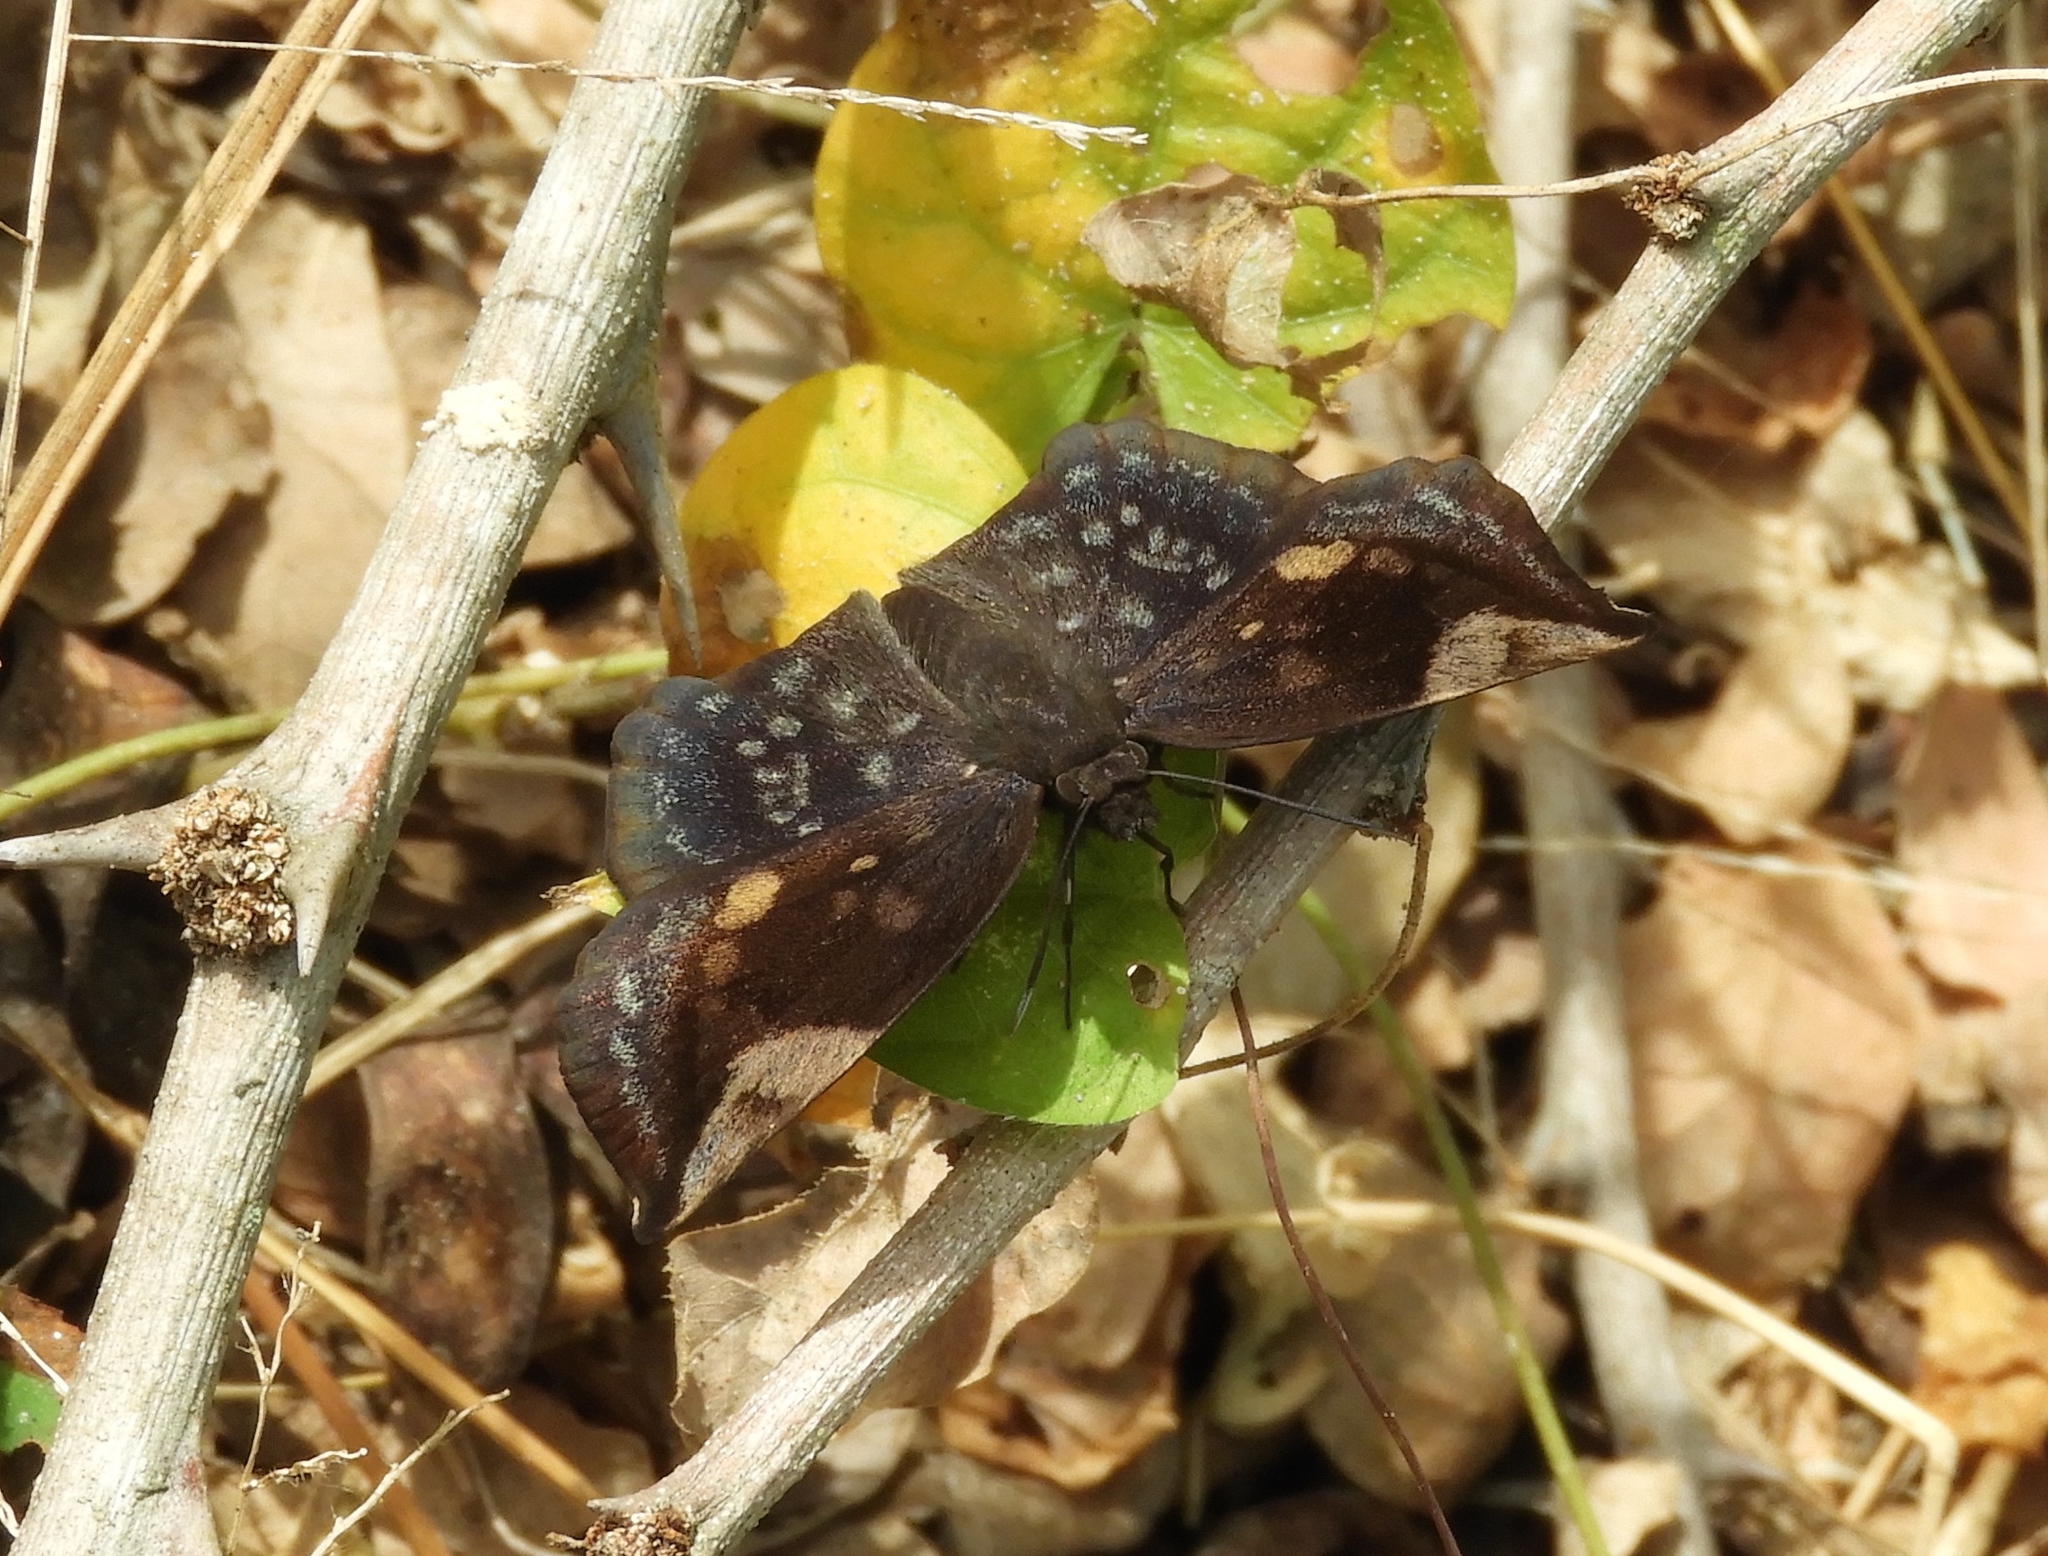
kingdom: Animalia
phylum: Arthropoda
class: Insecta
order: Lepidoptera
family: Hesperiidae
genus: Achlyodes
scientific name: Achlyodes thraso
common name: Sickle-winged skipper
